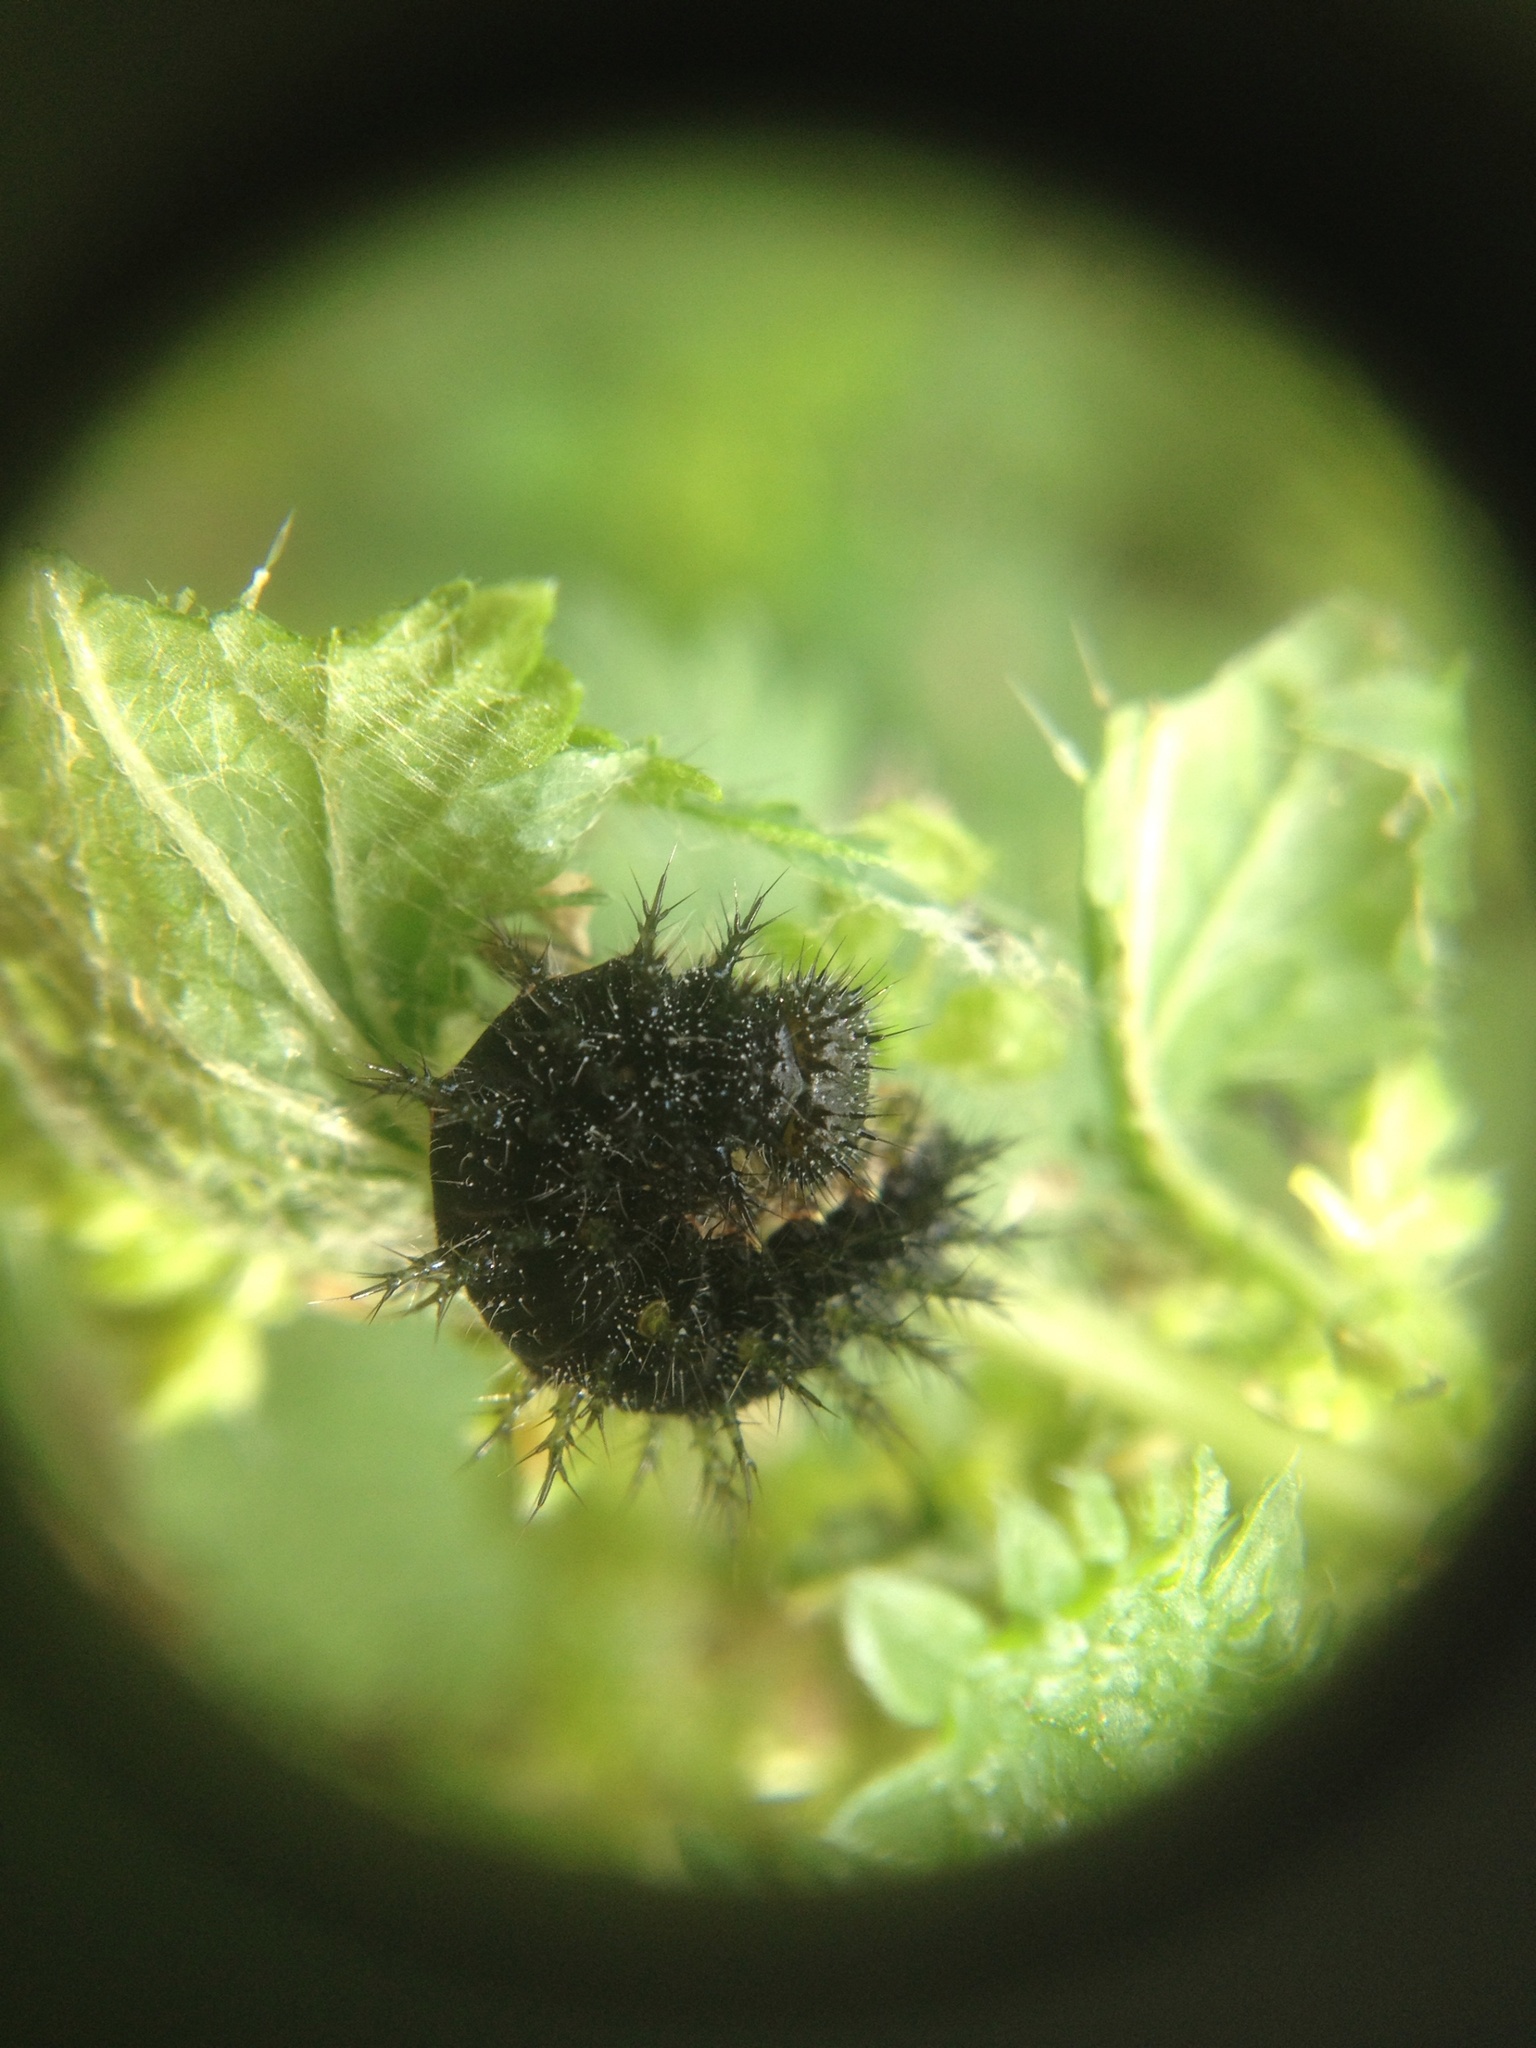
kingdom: Animalia
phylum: Arthropoda
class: Insecta
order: Lepidoptera
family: Nymphalidae
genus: Vanessa
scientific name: Vanessa itea
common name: Yellow admiral
